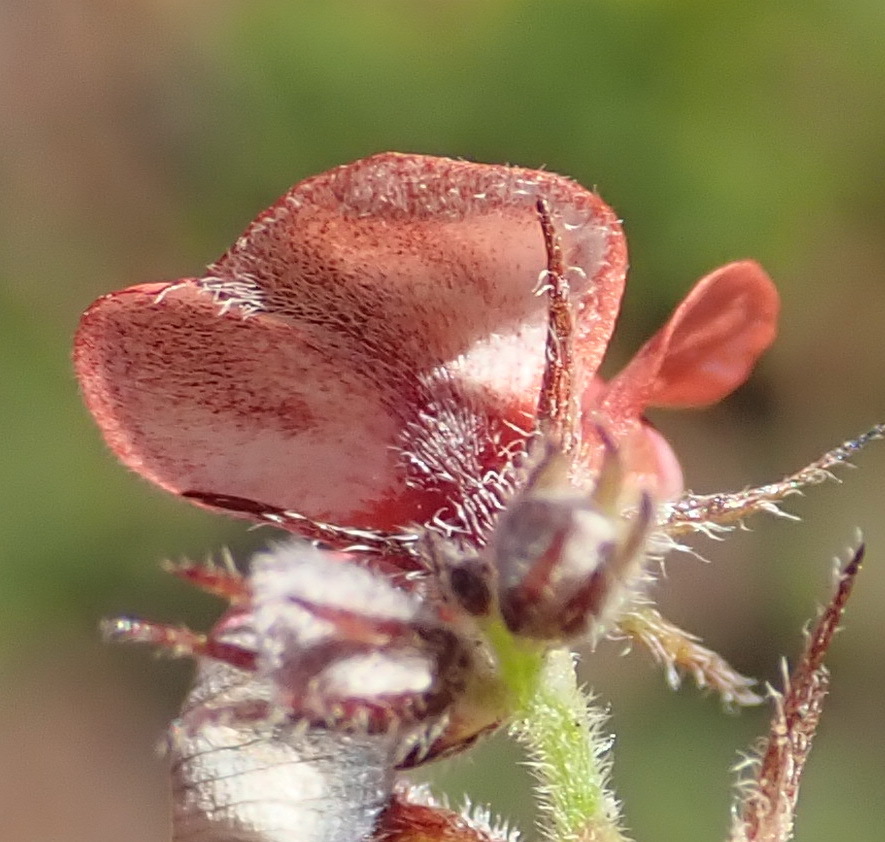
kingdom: Plantae
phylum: Tracheophyta
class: Magnoliopsida
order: Fabales
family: Fabaceae
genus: Indigofera
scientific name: Indigofera priorii
